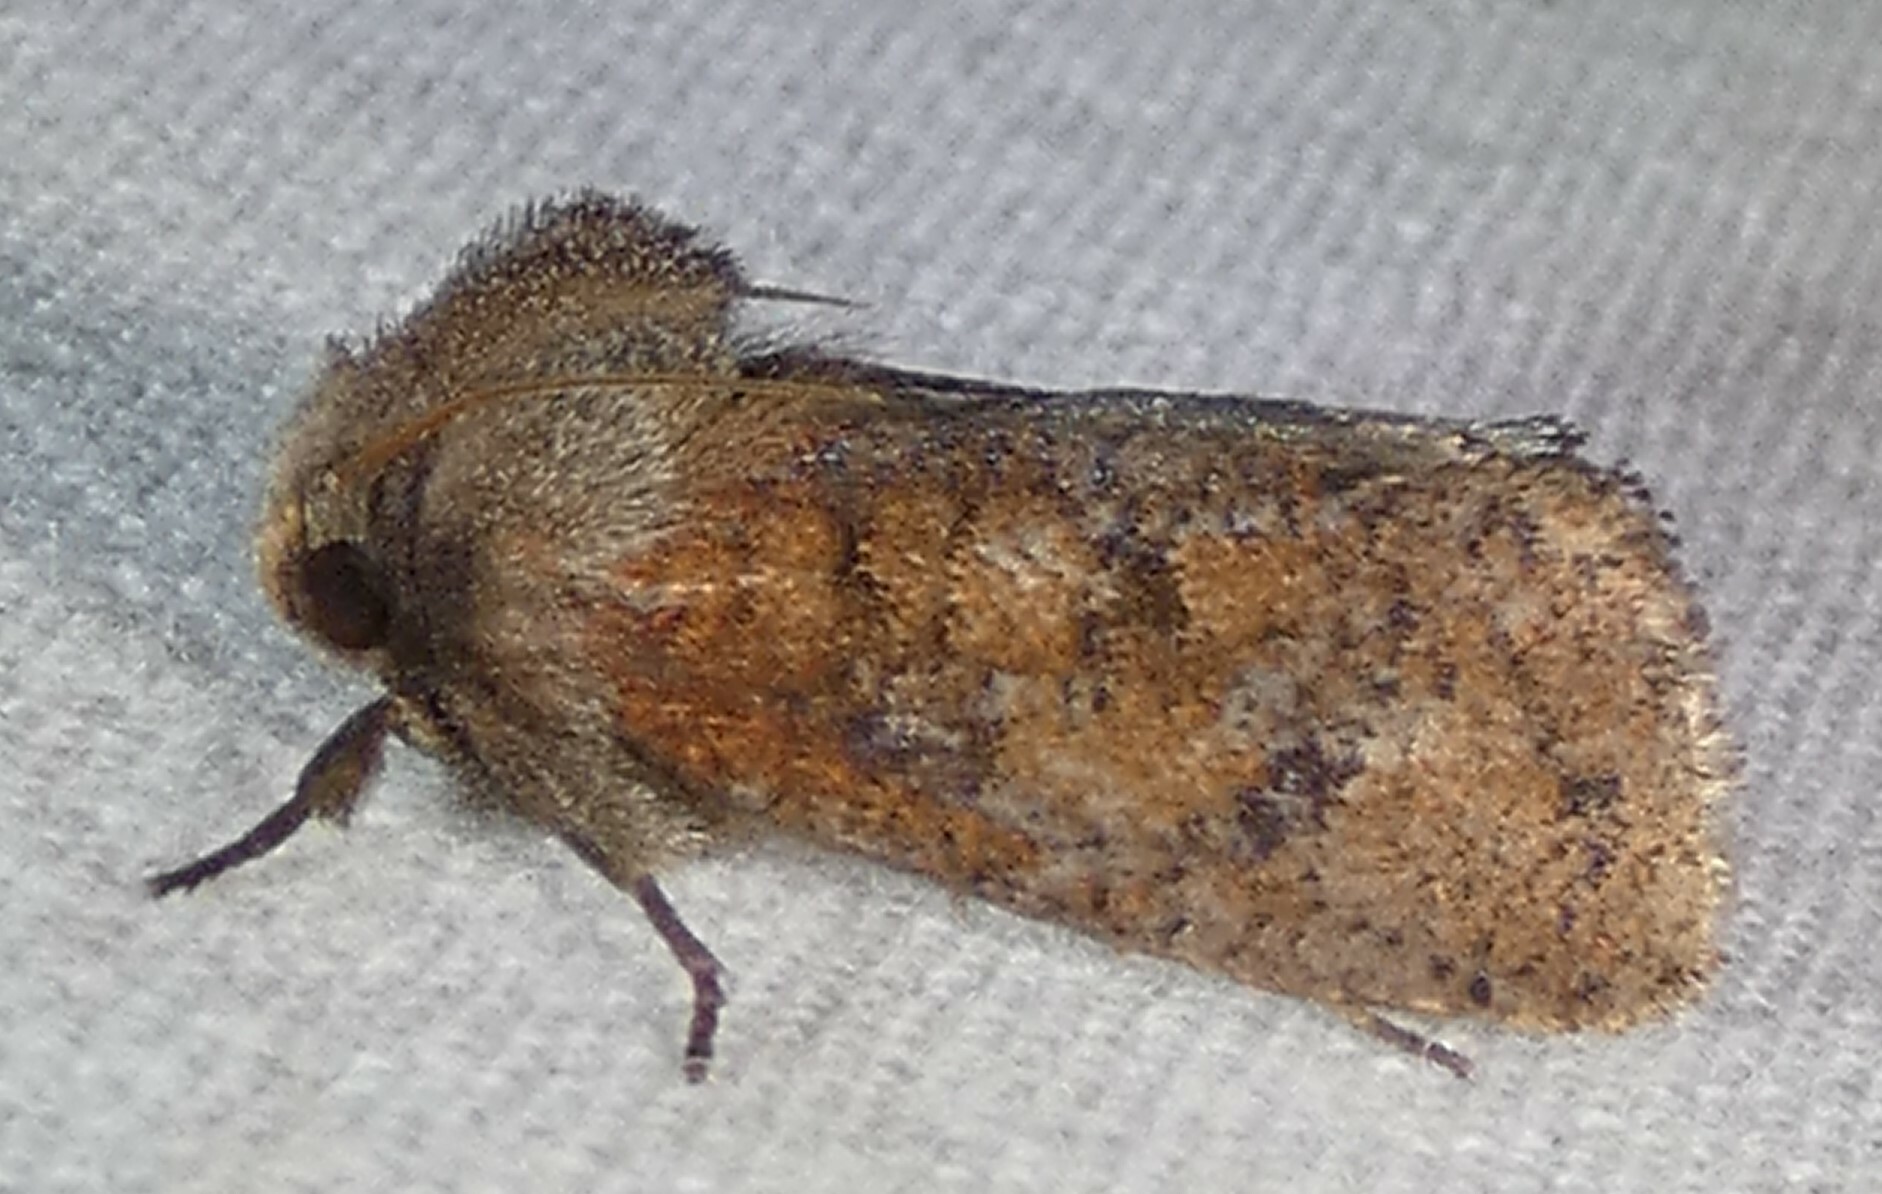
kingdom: Animalia
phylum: Arthropoda
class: Insecta
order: Lepidoptera
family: Tineidae
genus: Acrolophus
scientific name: Acrolophus plumifrontella
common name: Eastern grass tubeworm moth
